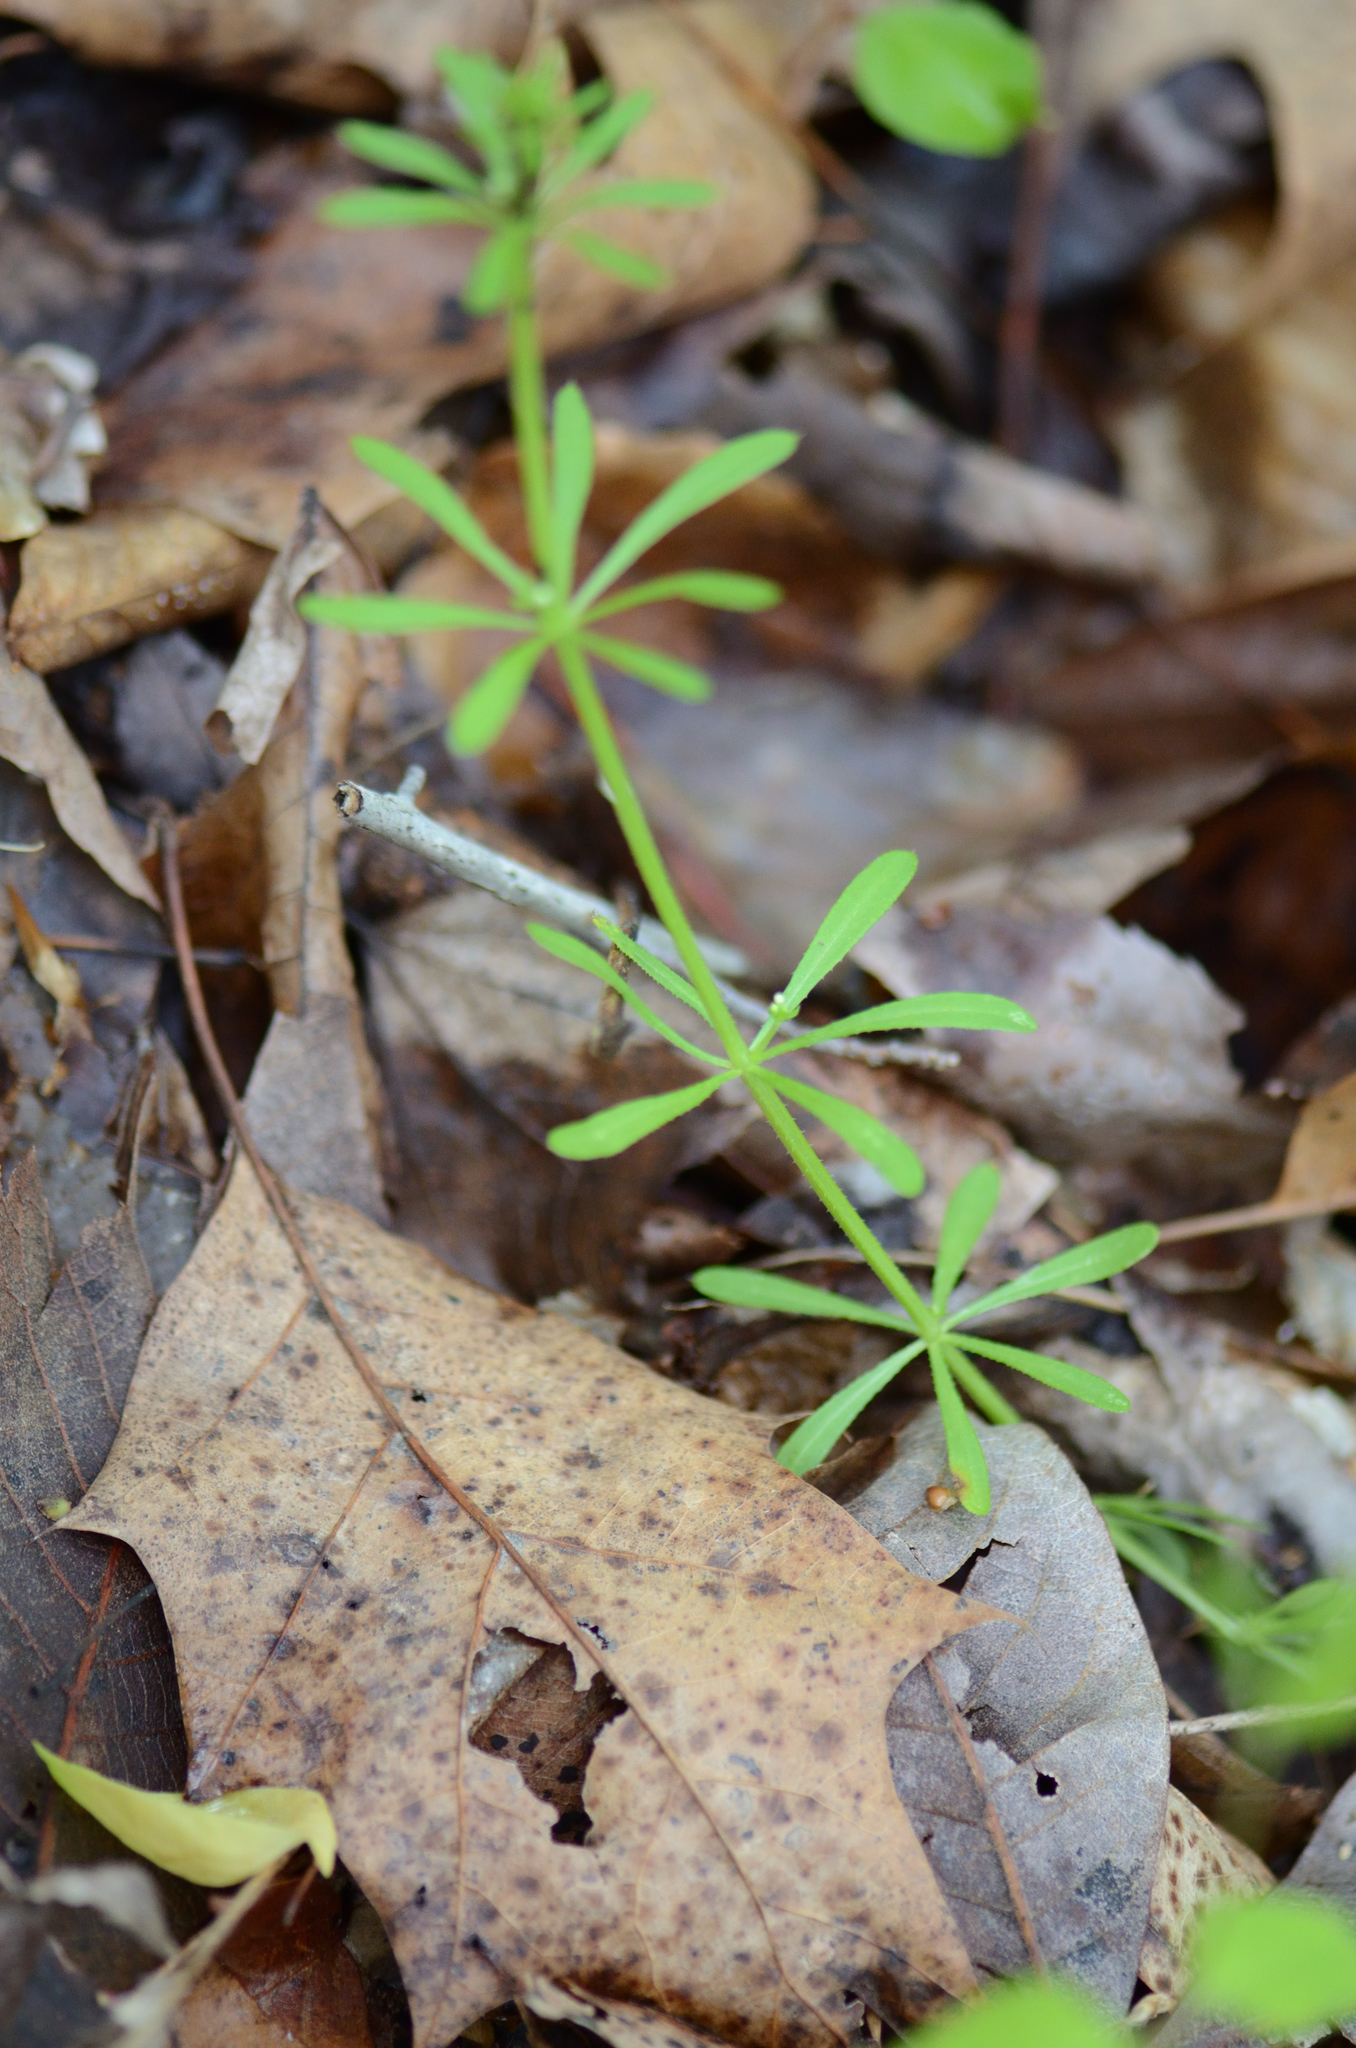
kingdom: Plantae
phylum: Tracheophyta
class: Magnoliopsida
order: Gentianales
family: Rubiaceae
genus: Galium
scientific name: Galium aparine
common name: Cleavers
